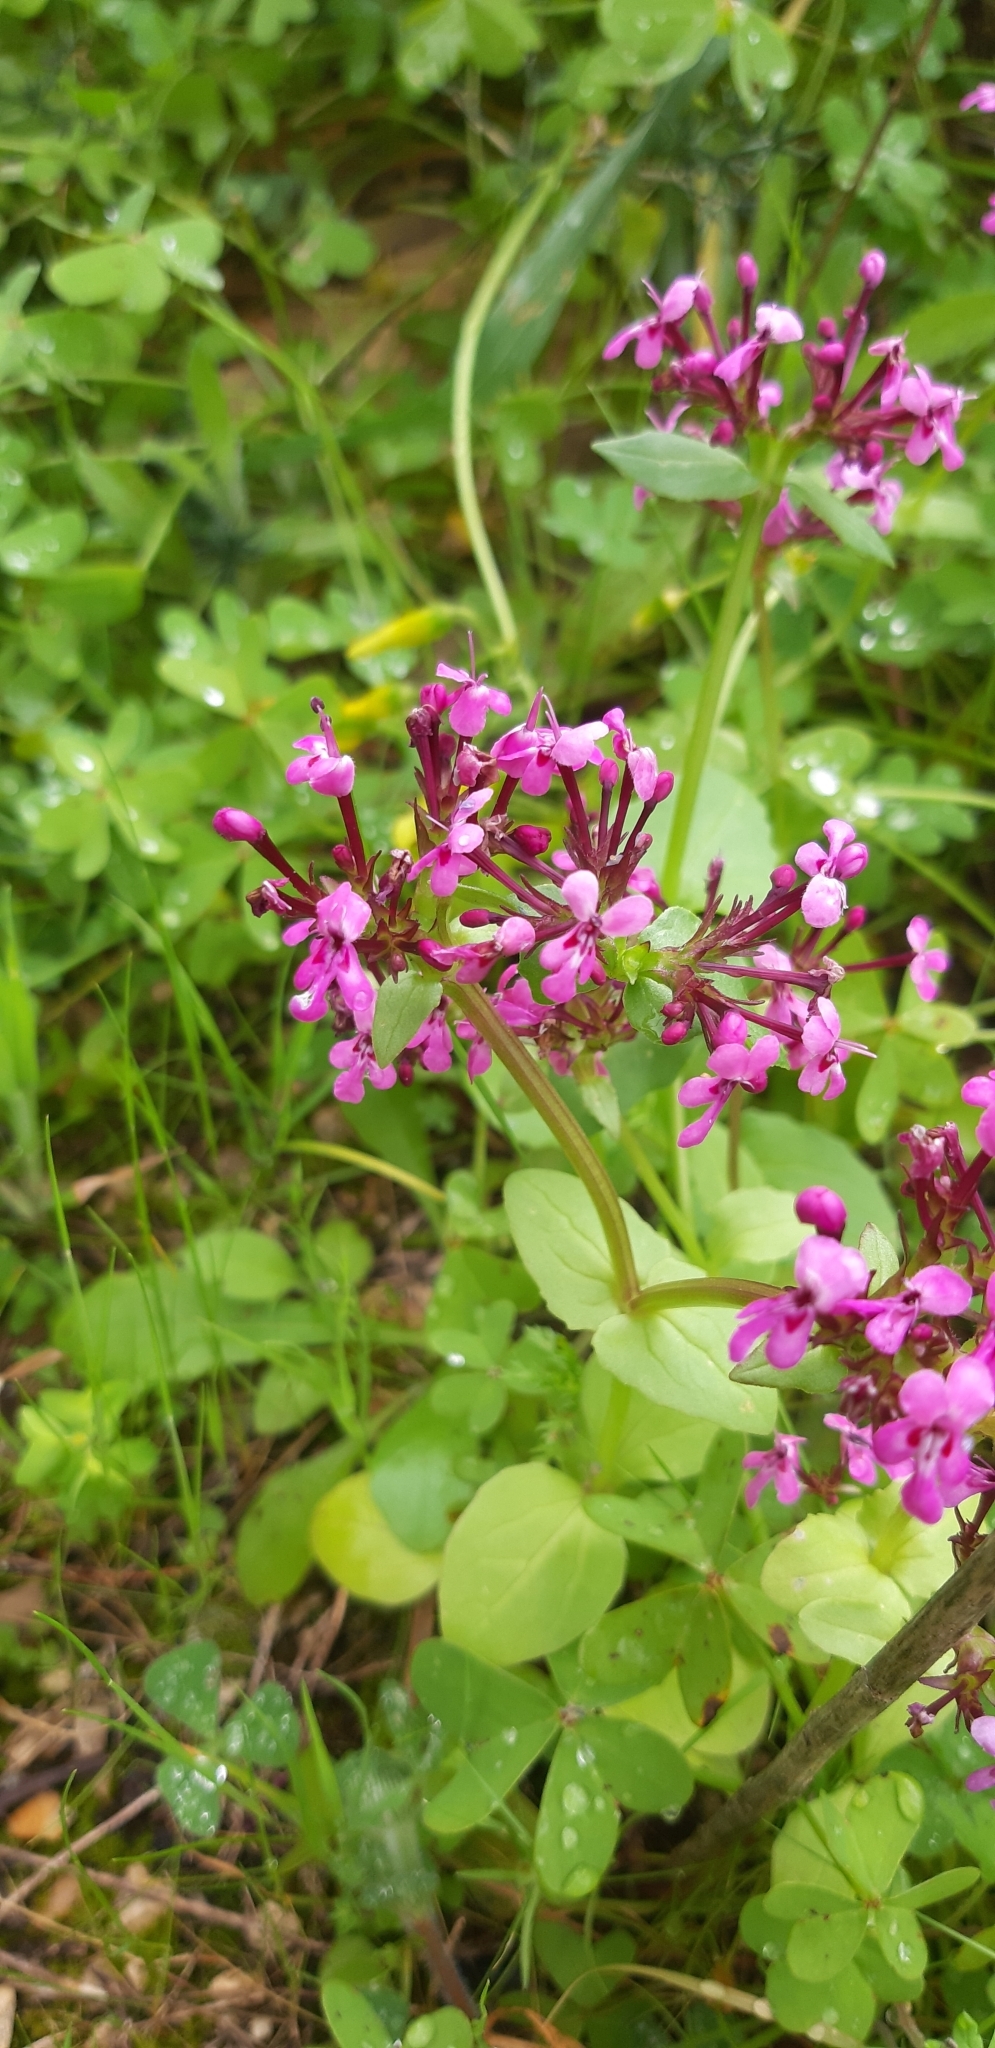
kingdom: Plantae
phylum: Tracheophyta
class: Magnoliopsida
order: Dipsacales
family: Caprifoliaceae
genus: Fedia
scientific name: Fedia graciliflora
